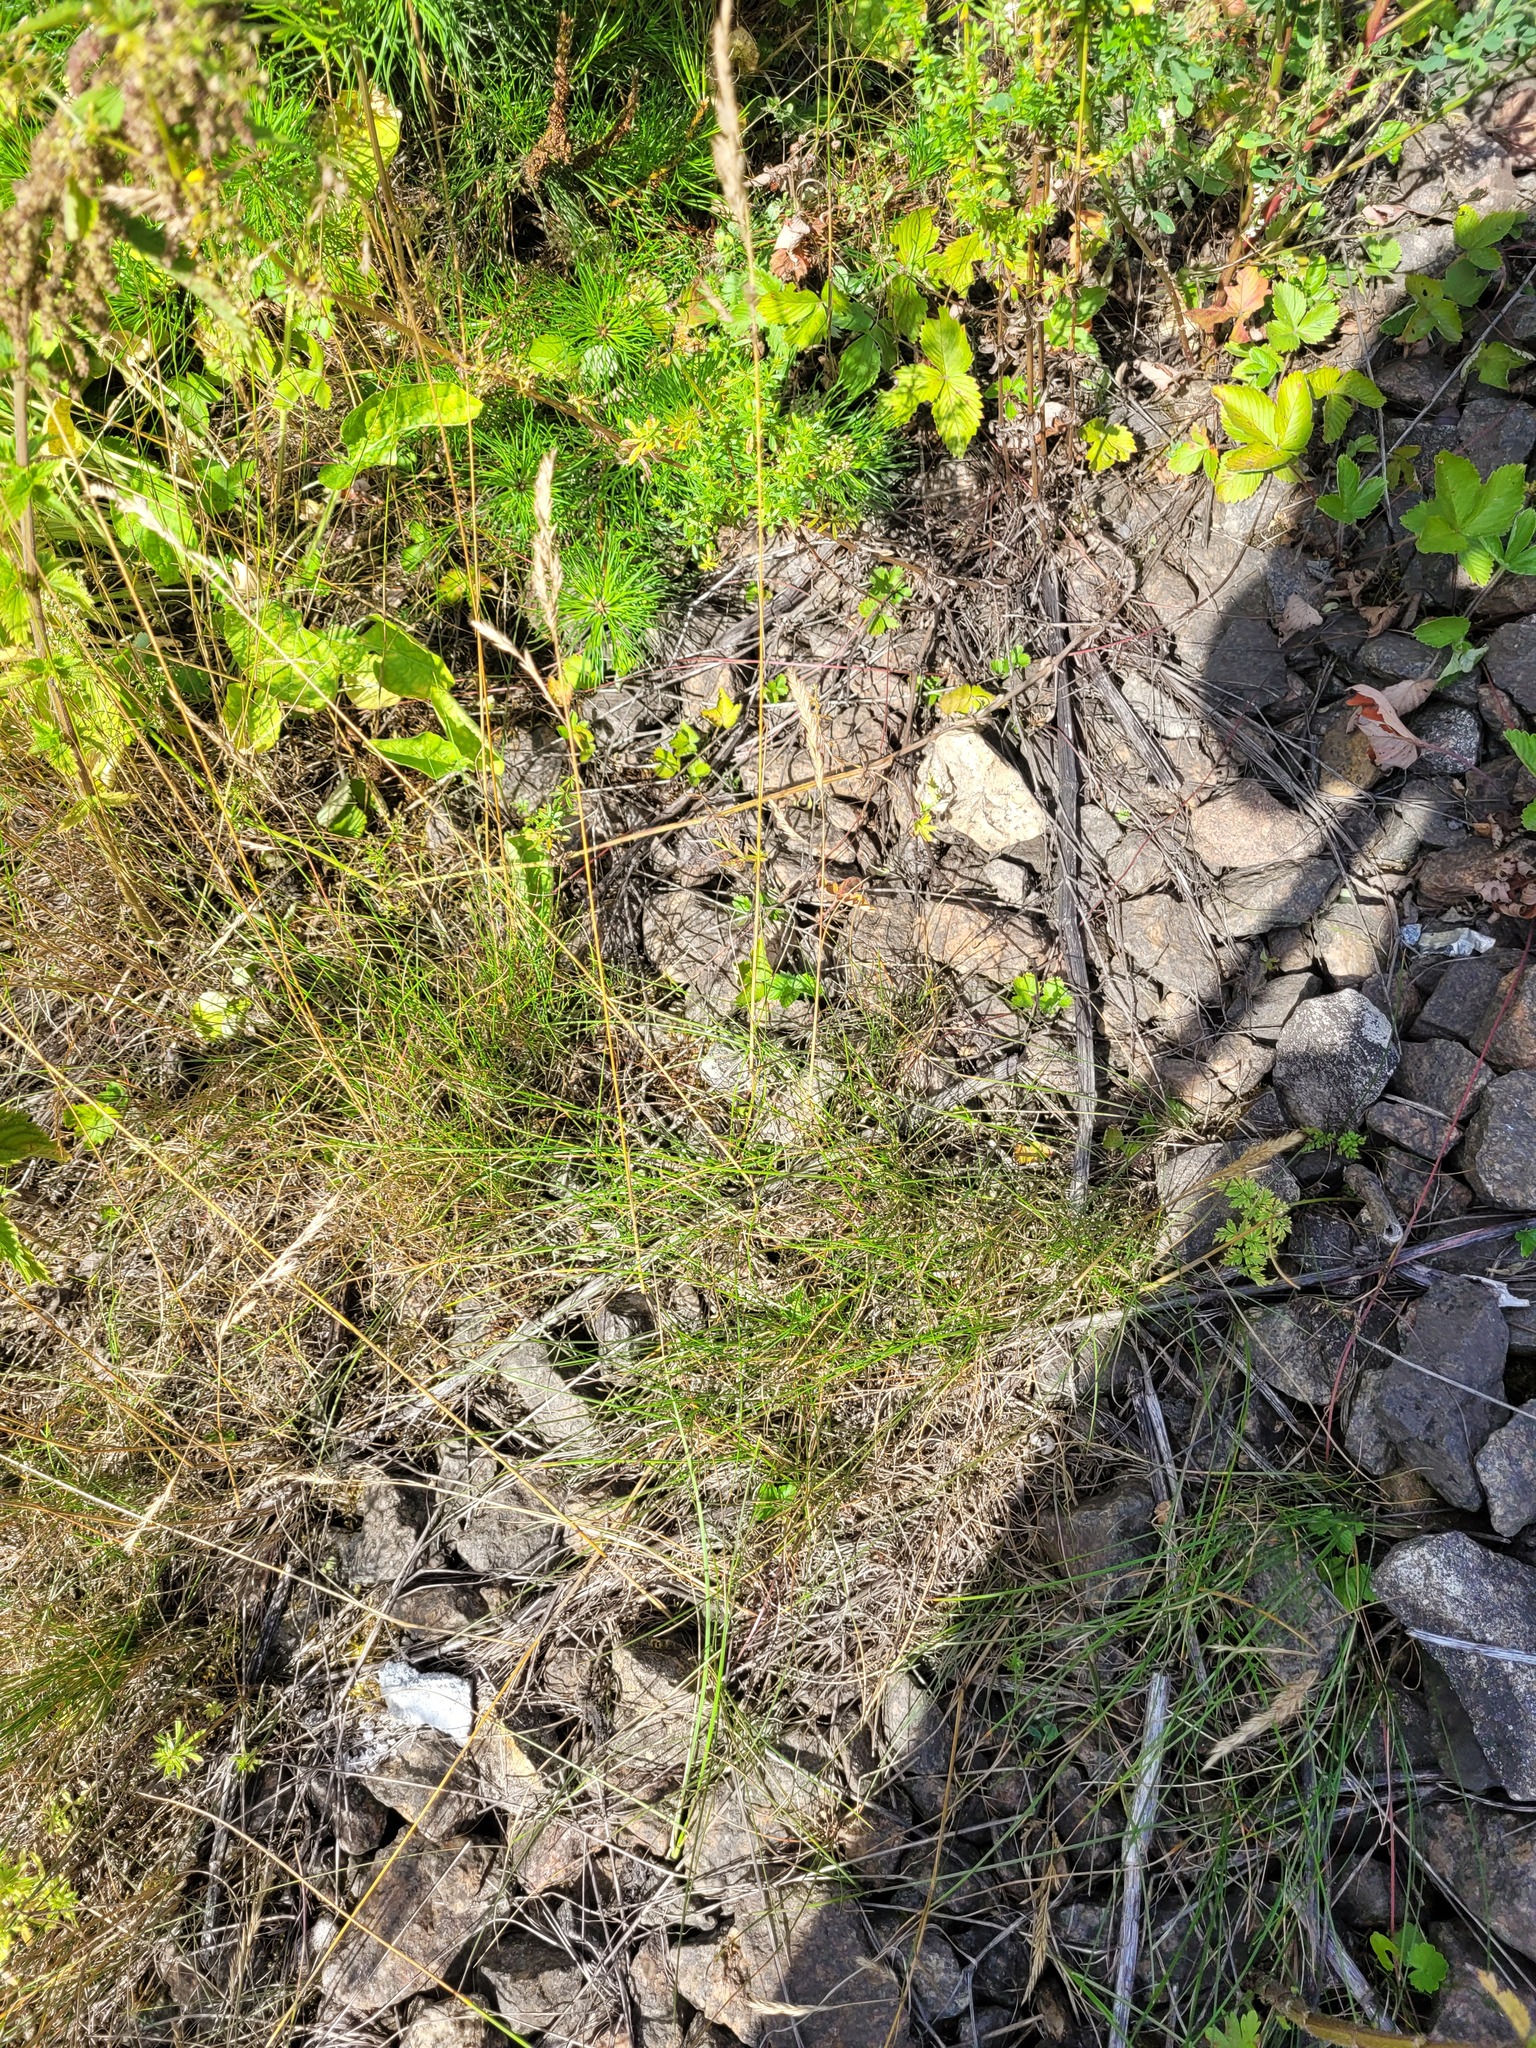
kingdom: Plantae
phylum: Tracheophyta
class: Liliopsida
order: Poales
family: Poaceae
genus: Festuca
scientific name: Festuca rubra
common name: Red fescue
